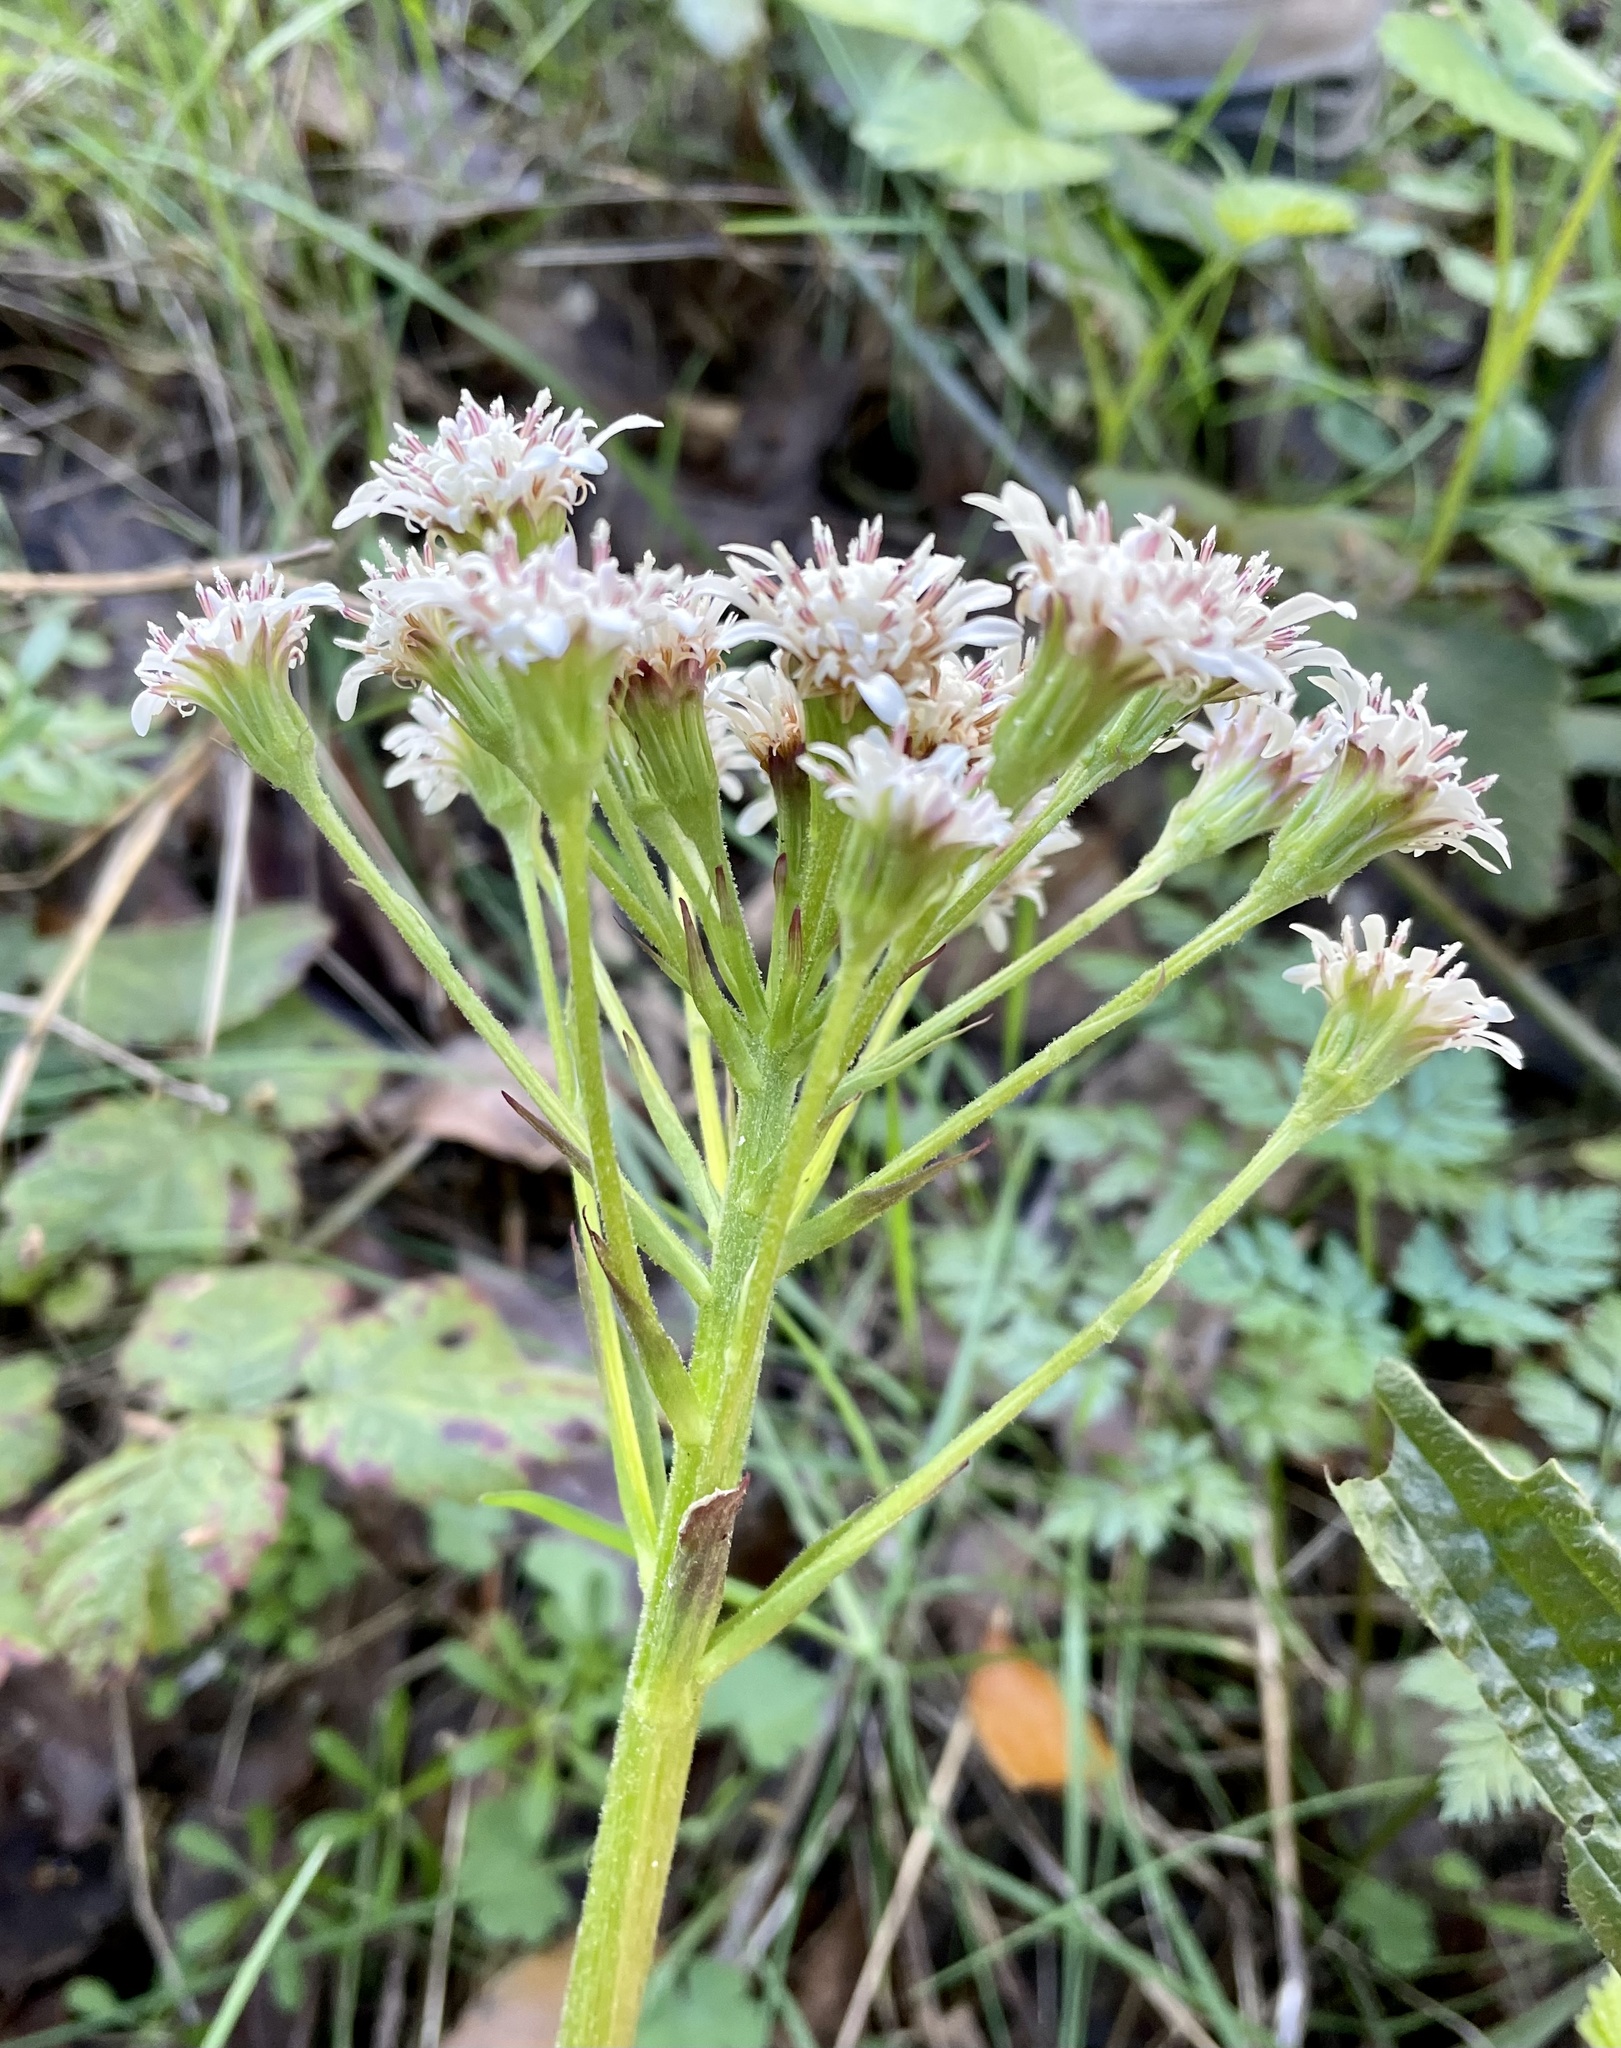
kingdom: Plantae
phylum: Tracheophyta
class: Magnoliopsida
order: Asterales
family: Asteraceae
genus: Petasites
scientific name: Petasites frigidus
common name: Arctic butterbur
